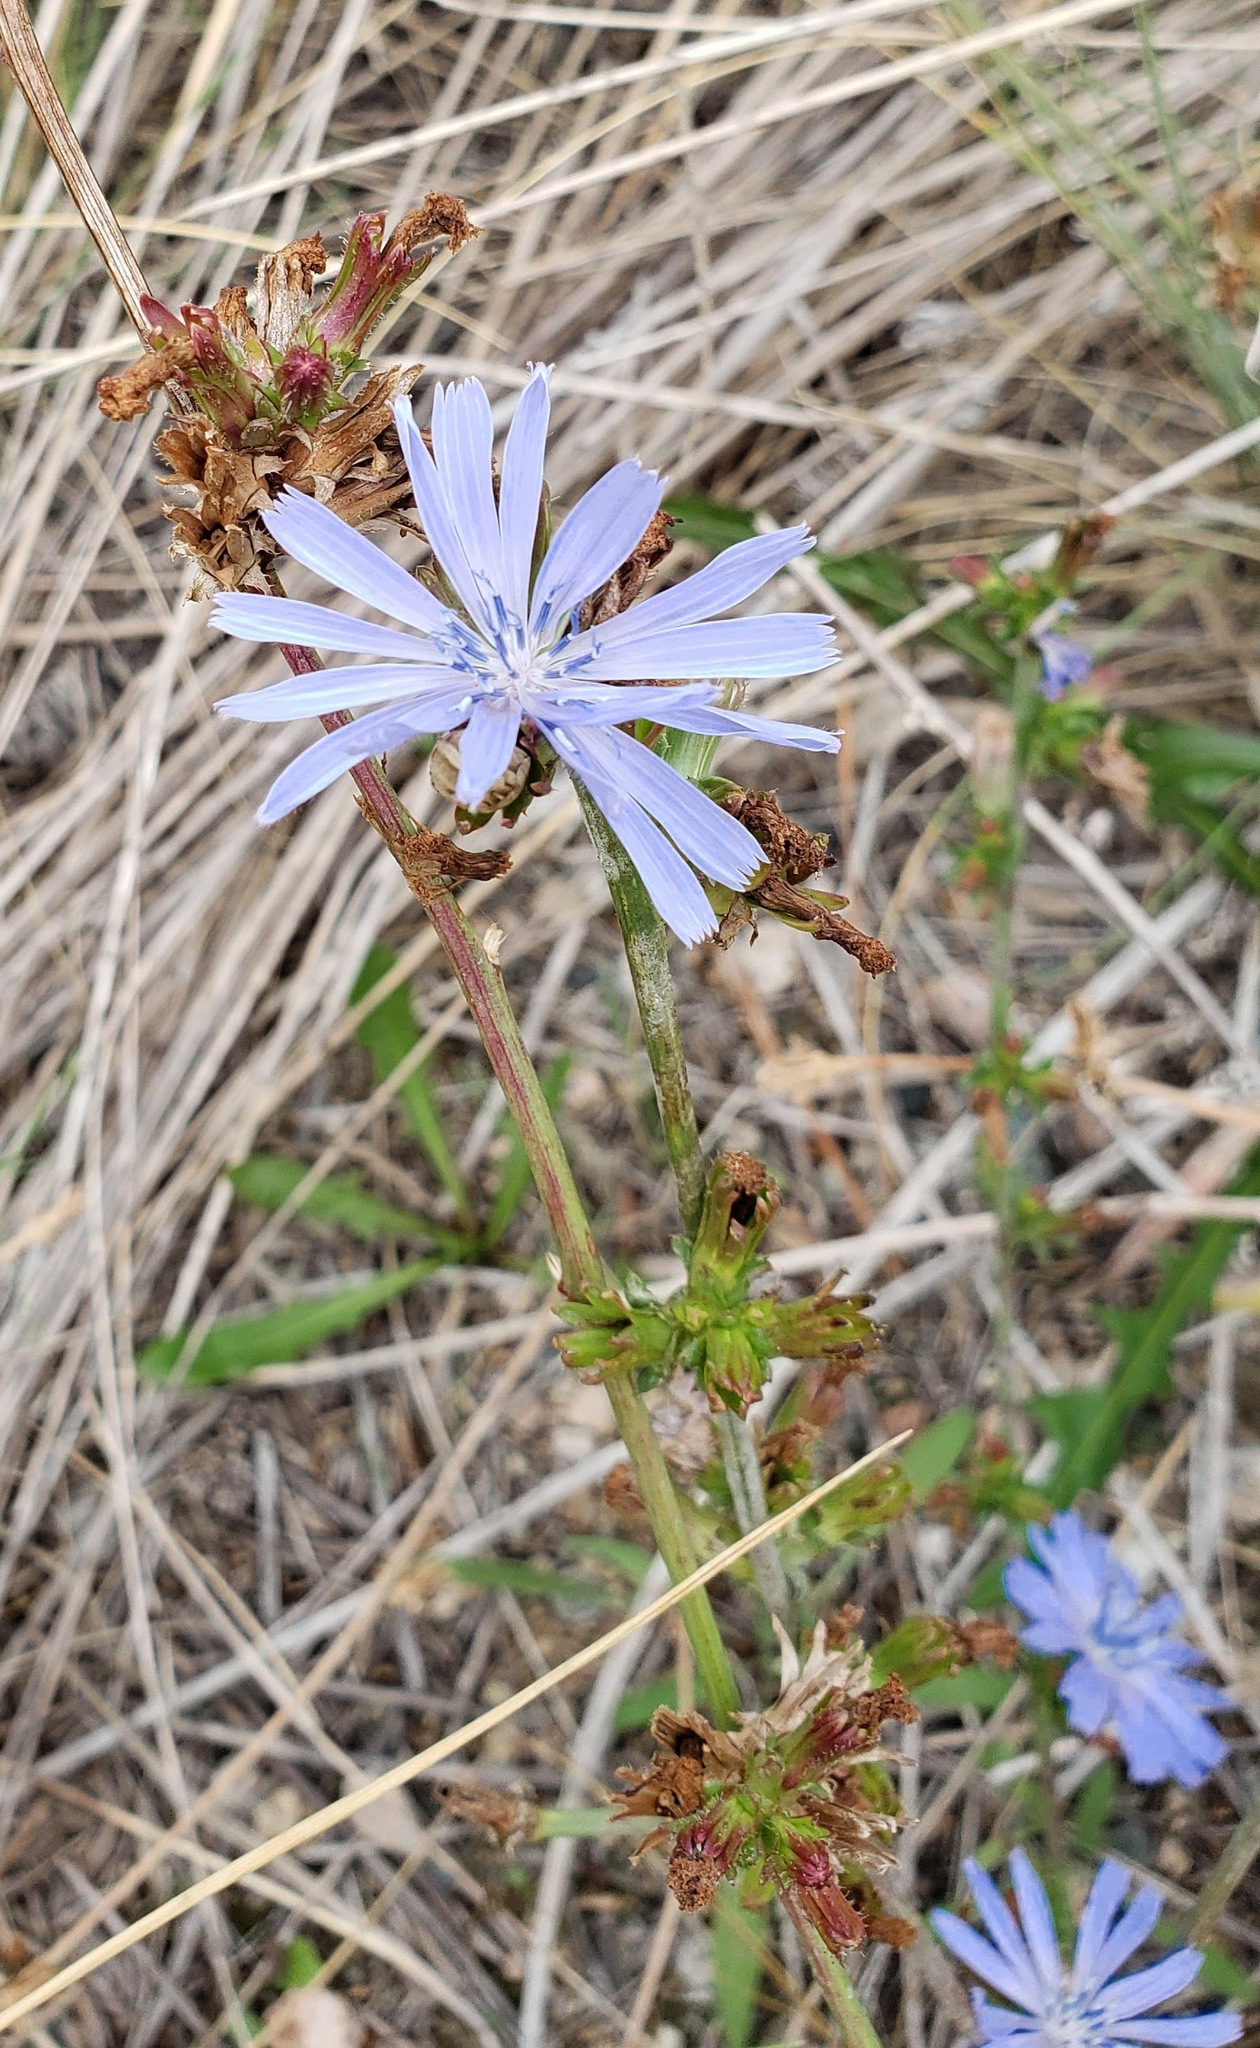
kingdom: Plantae
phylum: Tracheophyta
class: Magnoliopsida
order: Asterales
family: Asteraceae
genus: Cichorium
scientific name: Cichorium intybus
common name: Chicory
